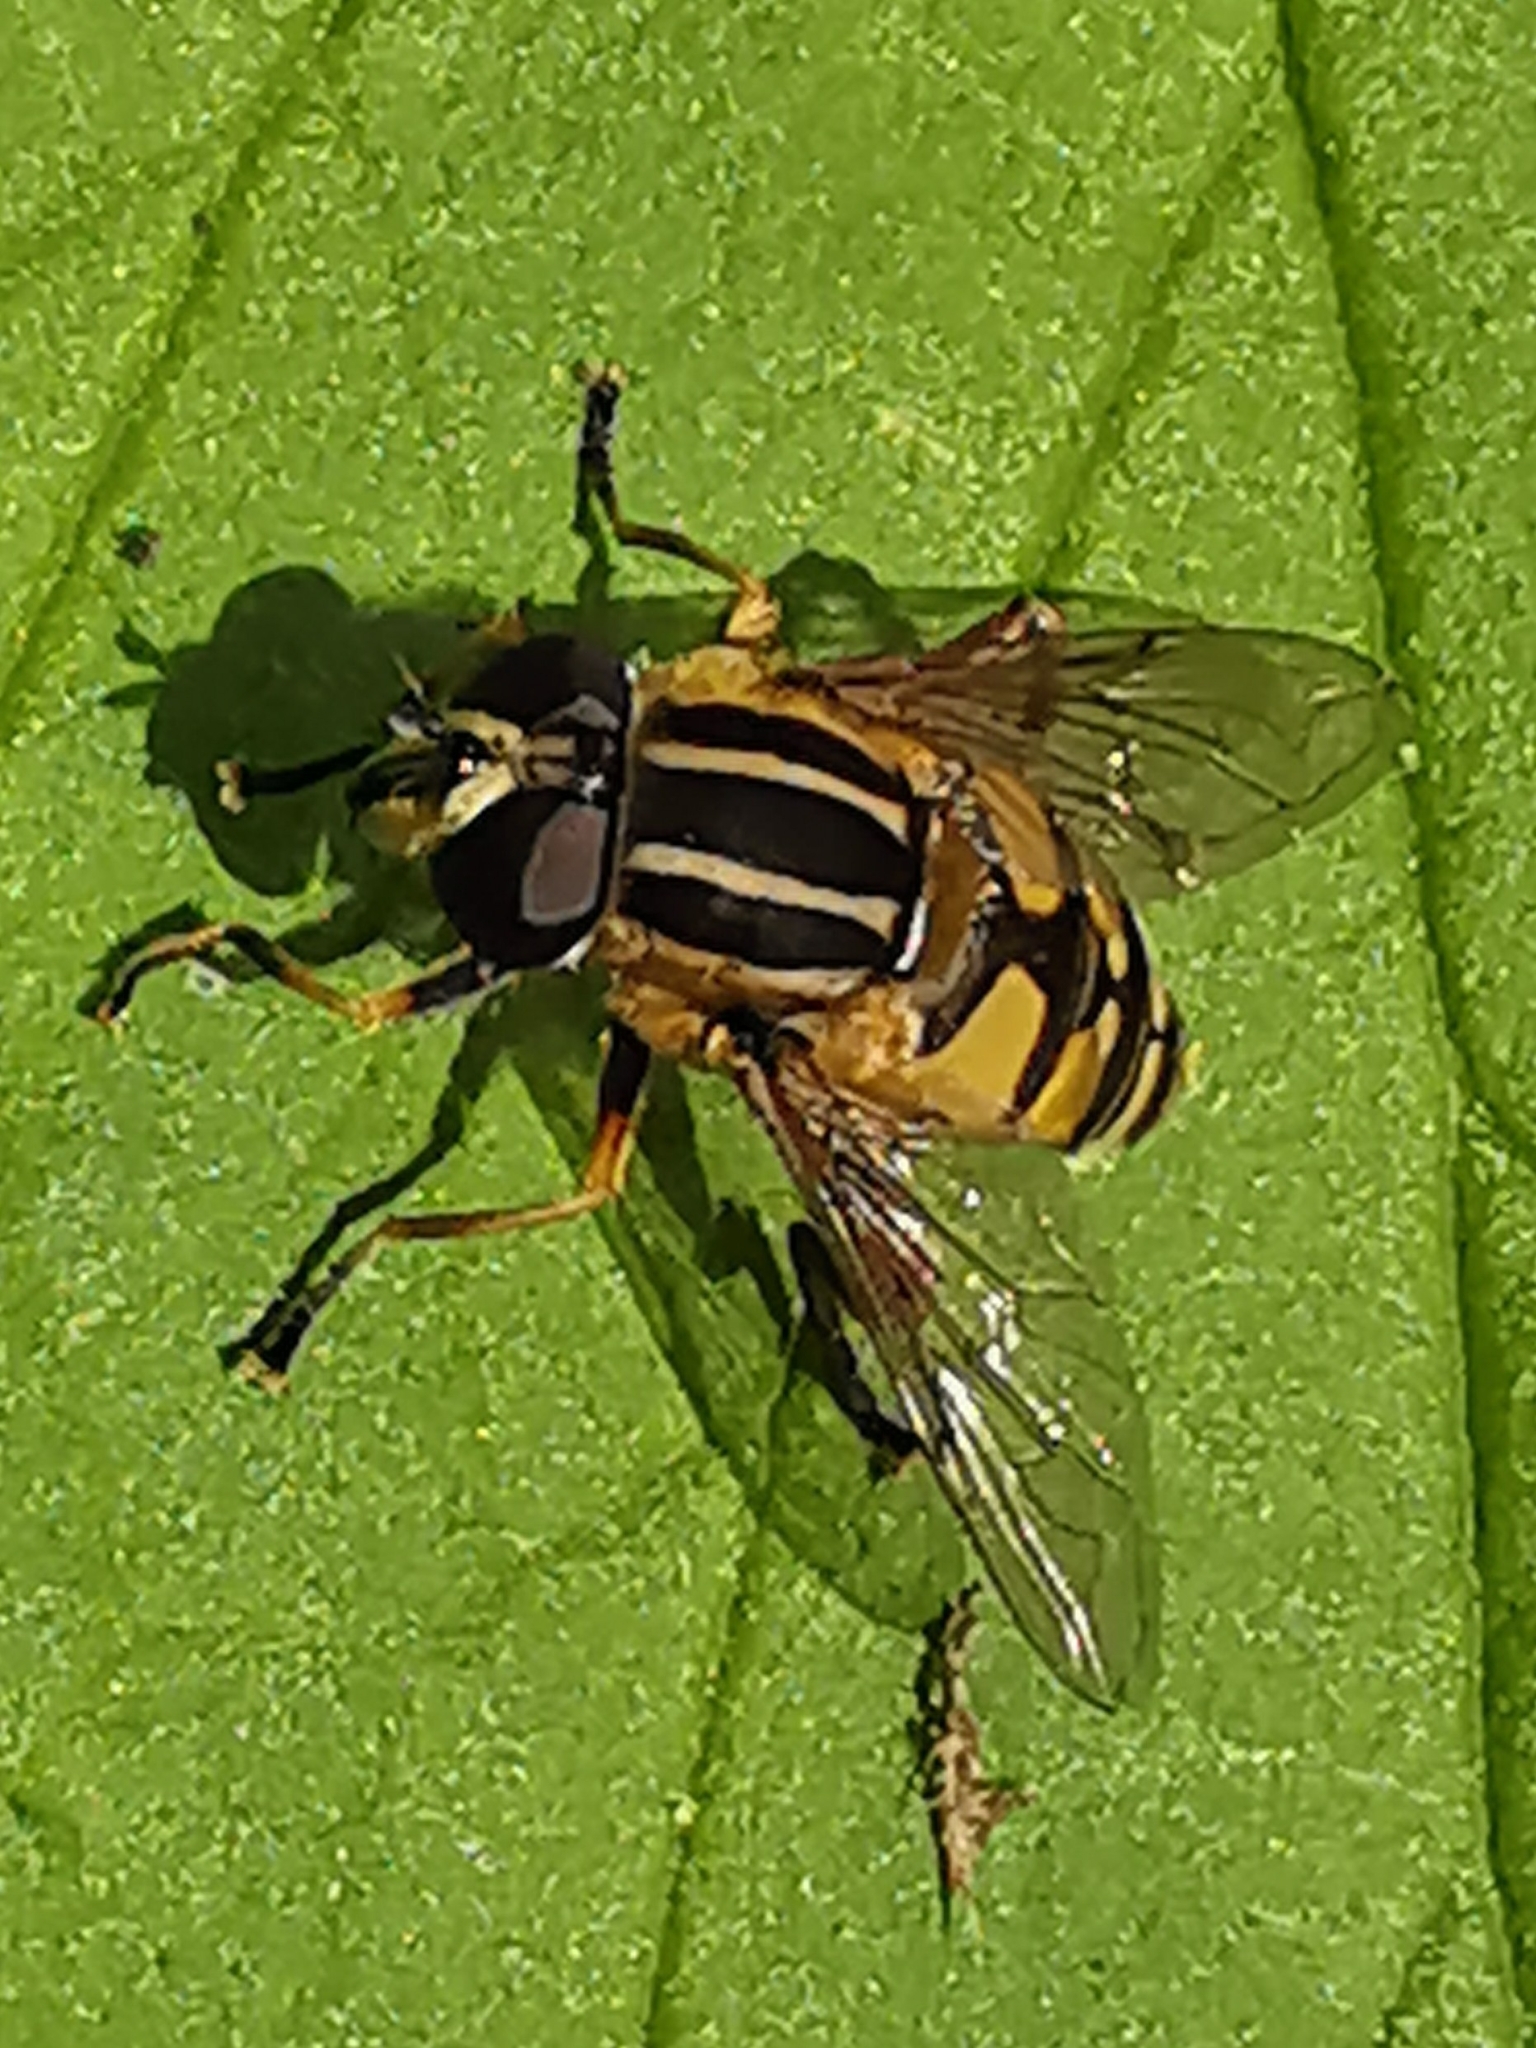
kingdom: Animalia
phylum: Arthropoda
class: Insecta
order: Diptera
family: Syrphidae
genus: Helophilus
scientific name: Helophilus pendulus
